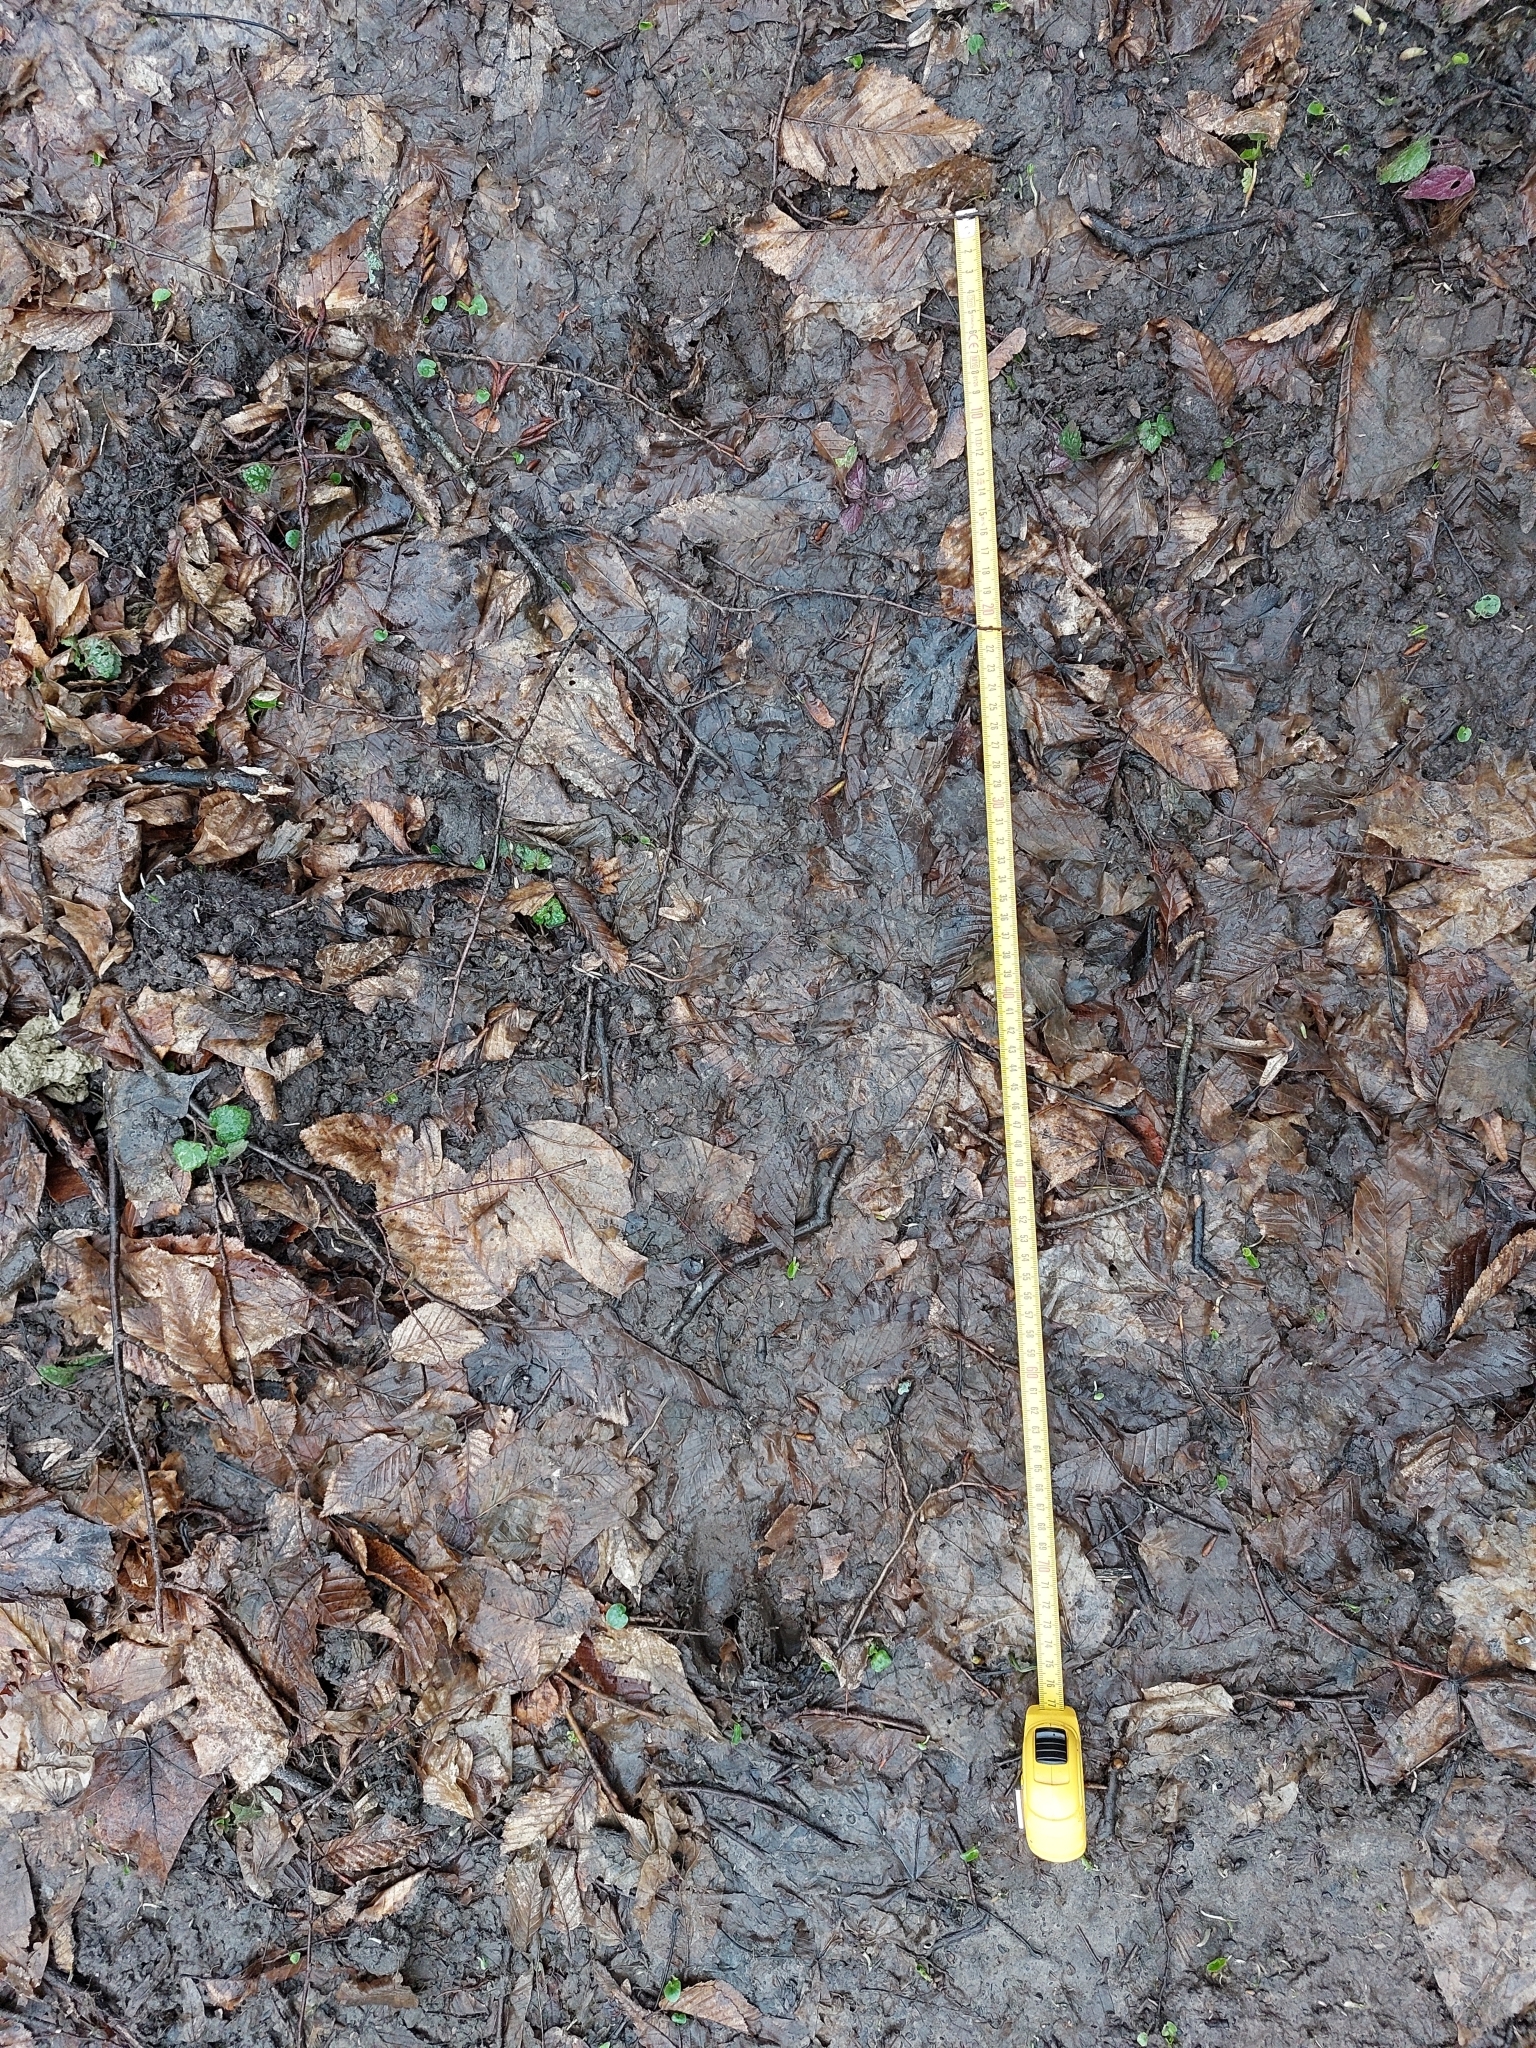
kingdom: Animalia
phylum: Chordata
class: Mammalia
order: Artiodactyla
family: Suidae
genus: Sus
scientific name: Sus scrofa
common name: Wild boar
